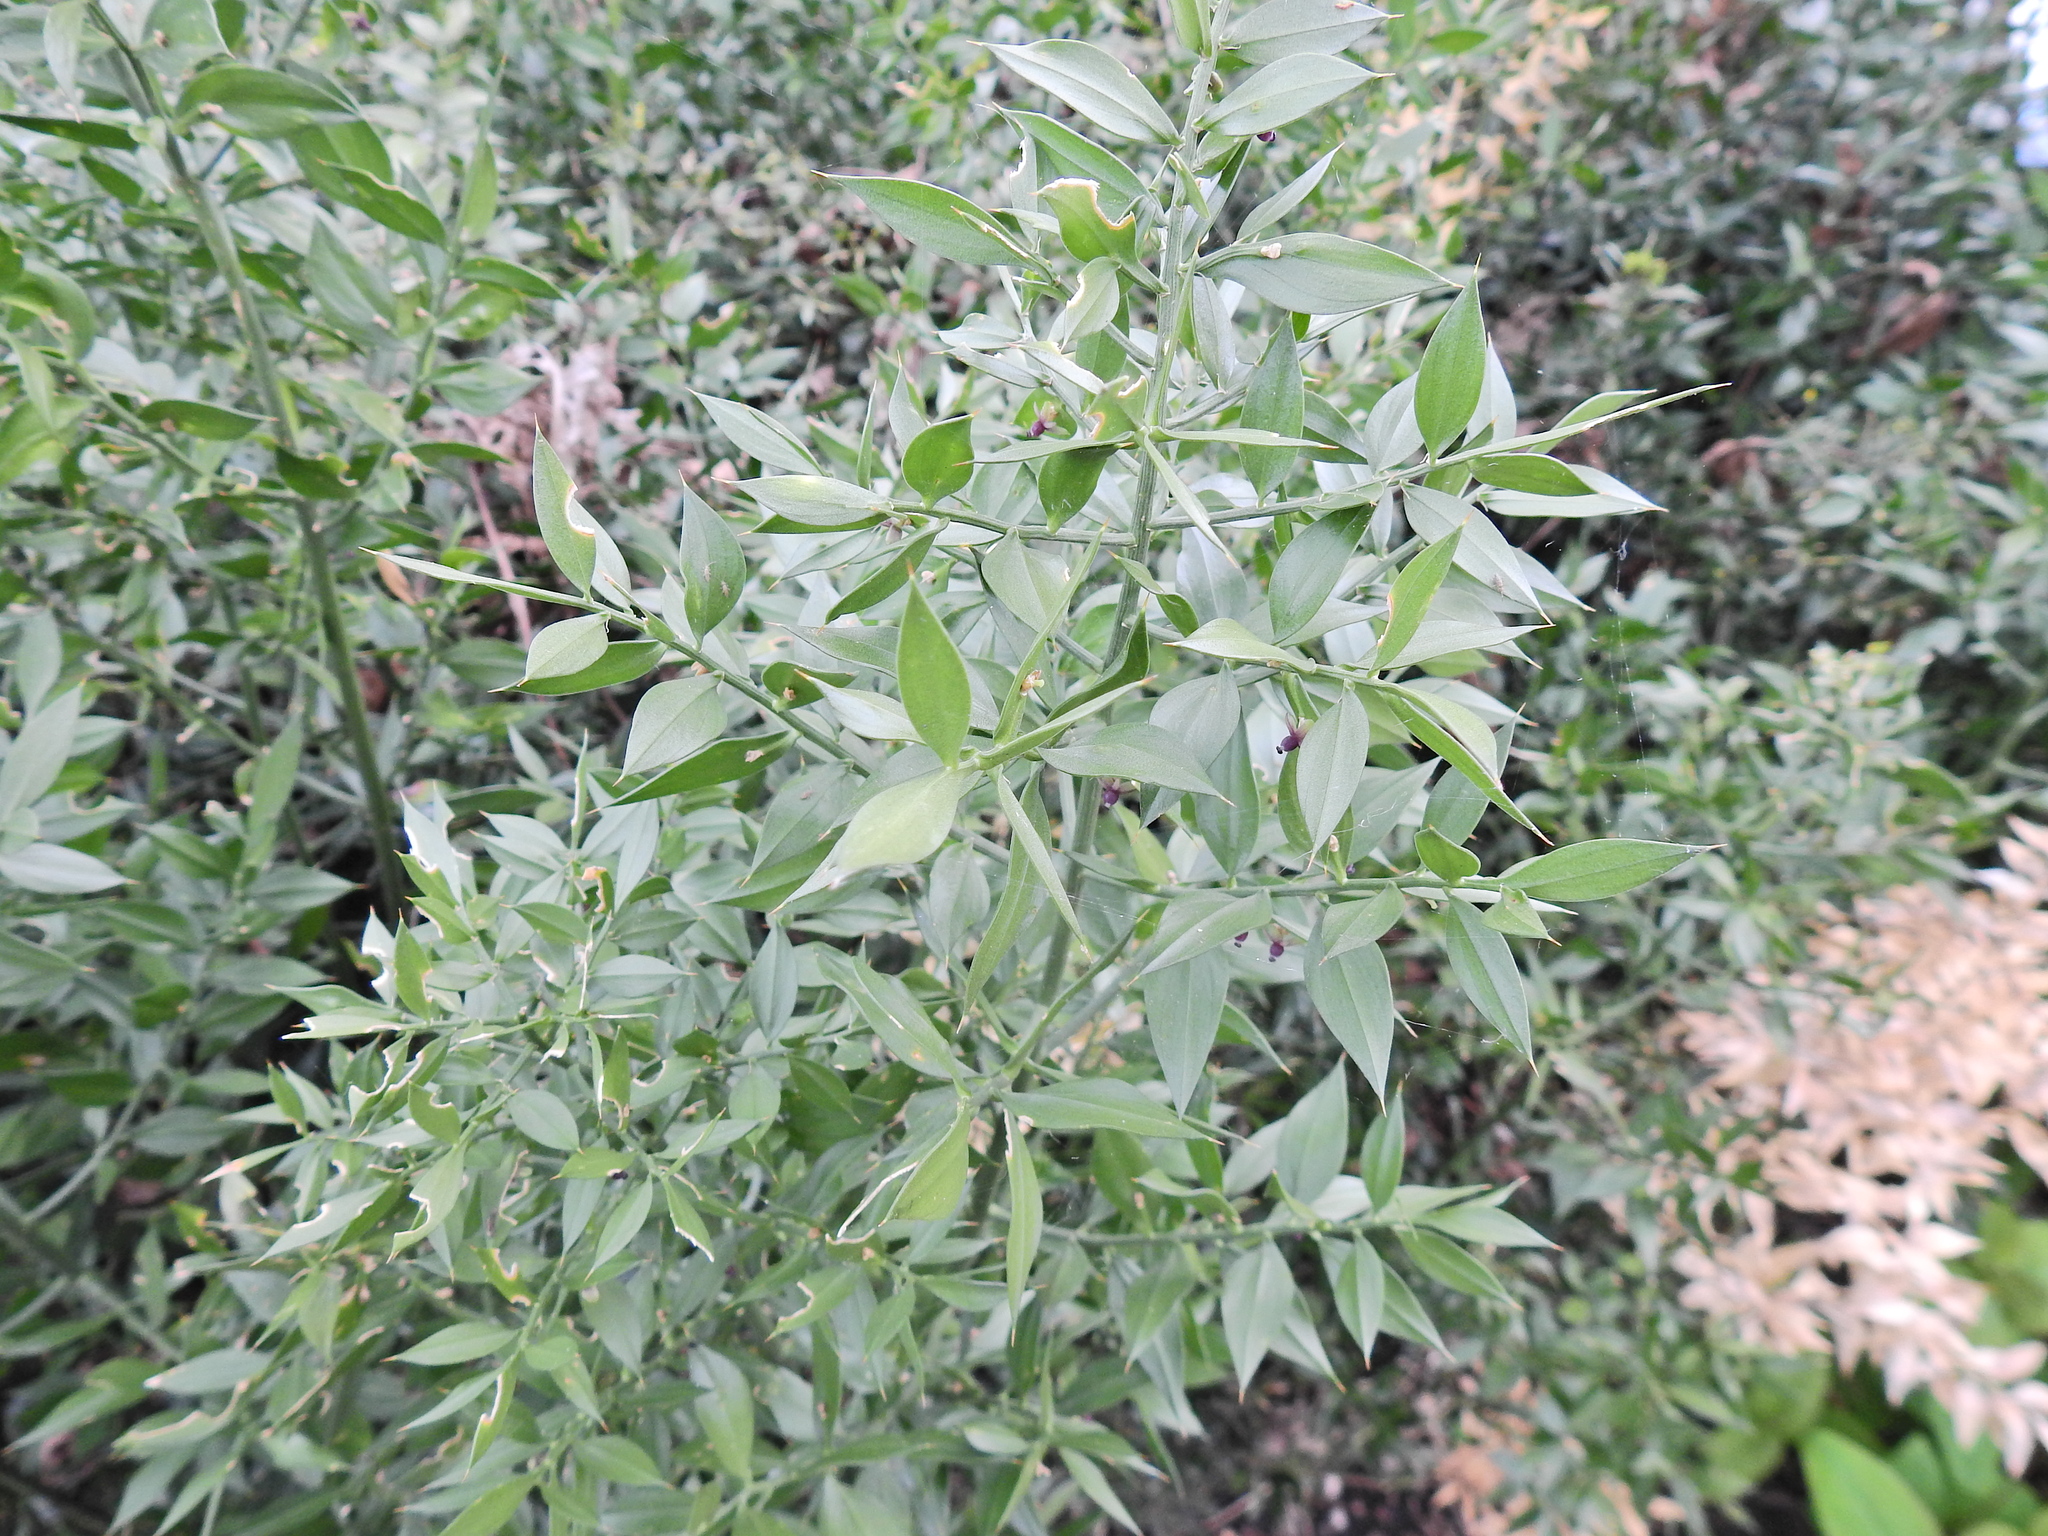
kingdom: Plantae
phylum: Tracheophyta
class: Liliopsida
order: Asparagales
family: Asparagaceae
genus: Ruscus
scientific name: Ruscus aculeatus
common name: Butcher's-broom
